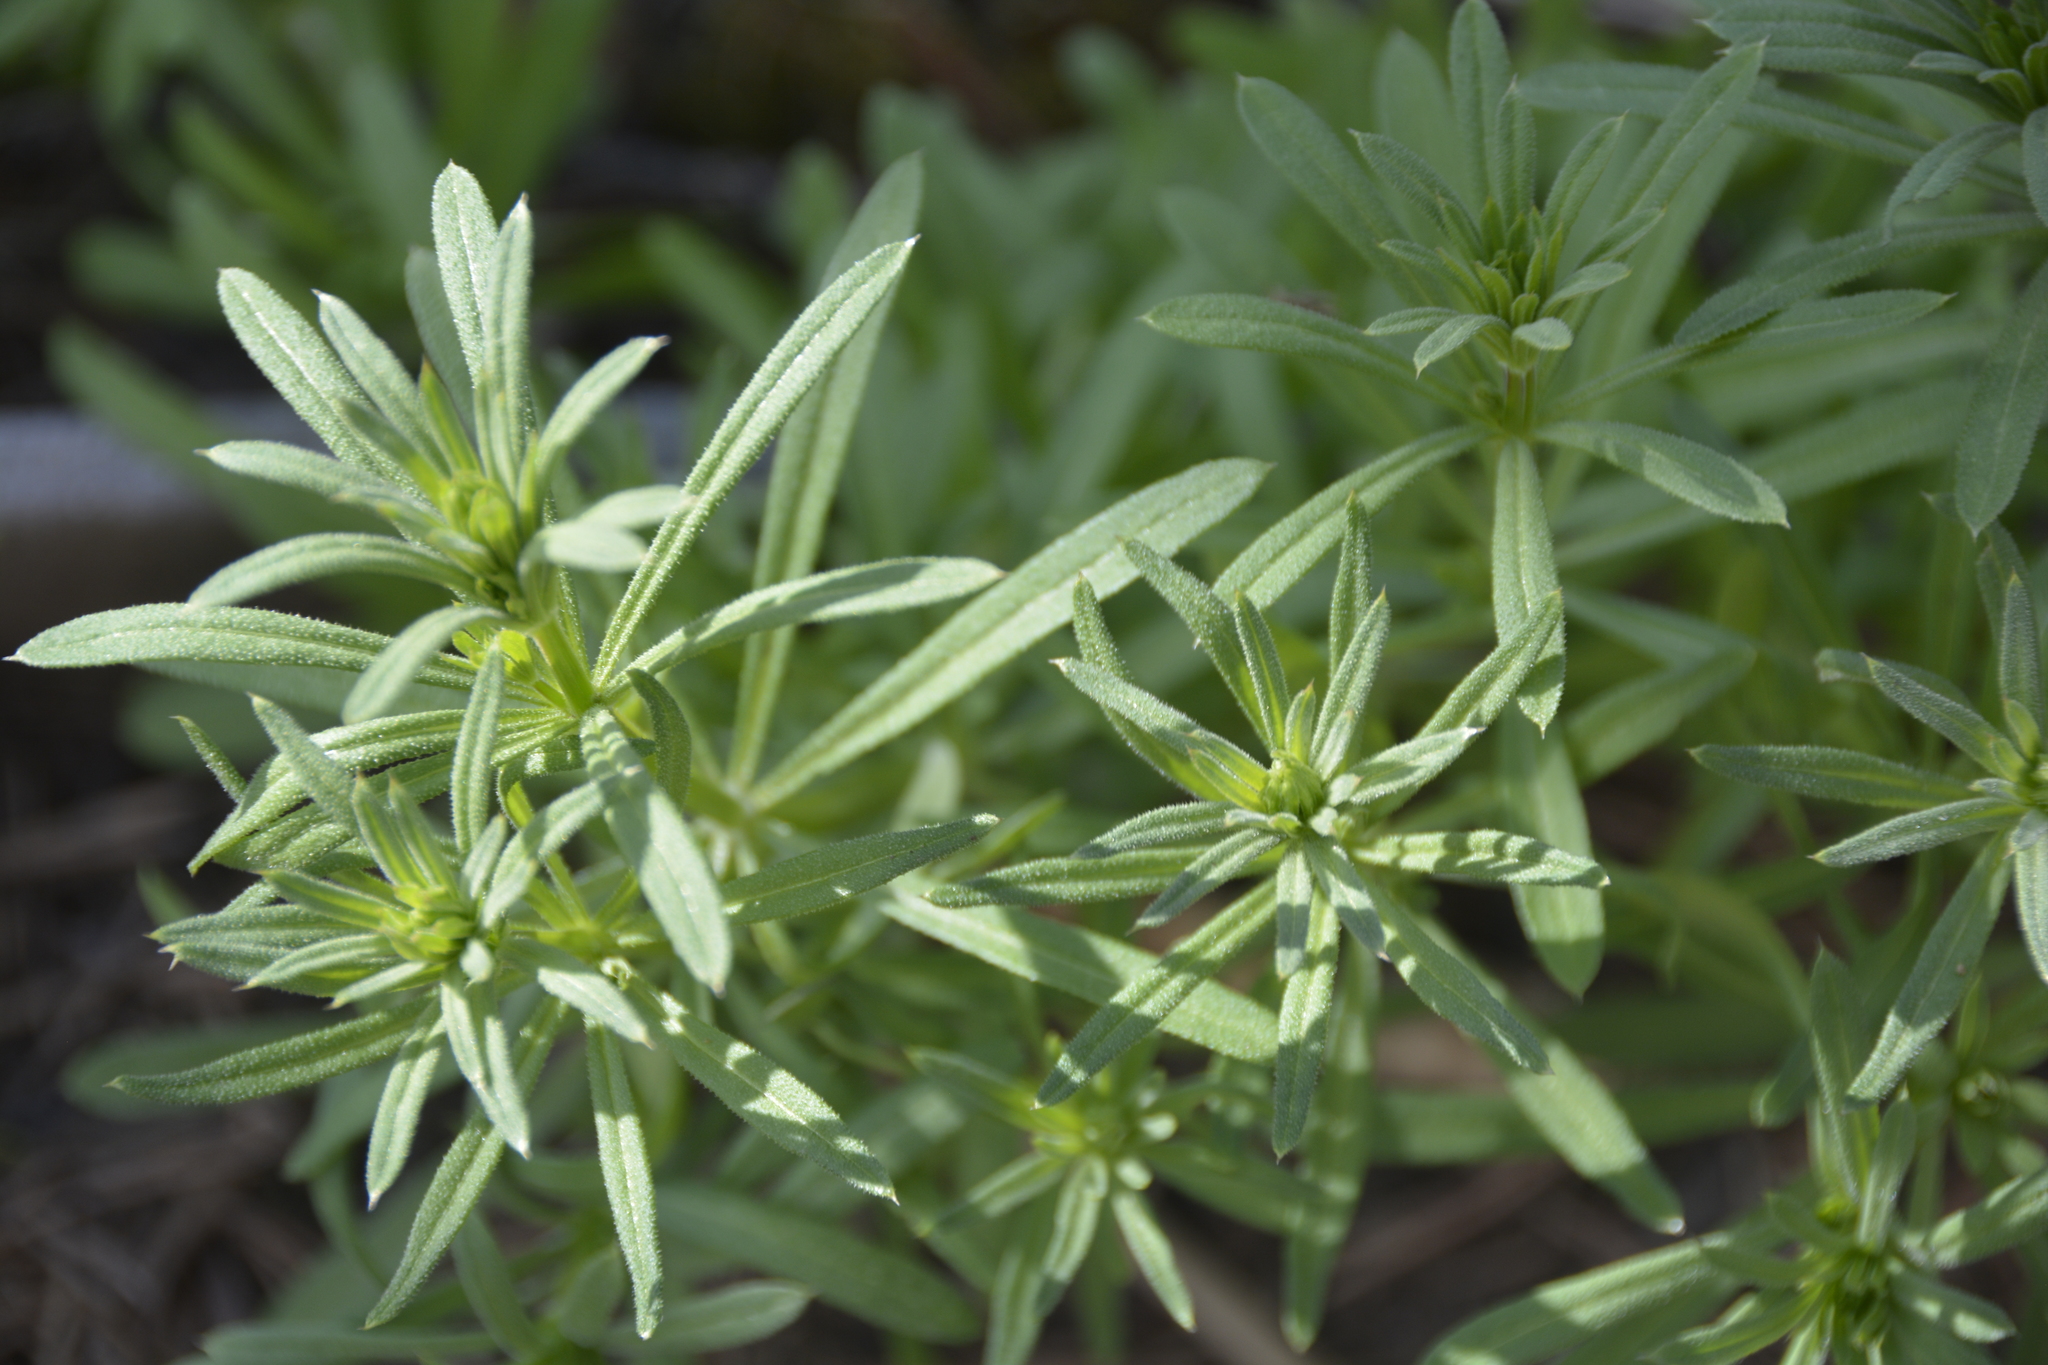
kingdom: Plantae
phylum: Tracheophyta
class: Magnoliopsida
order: Gentianales
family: Rubiaceae
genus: Galium
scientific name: Galium aparine
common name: Cleavers
